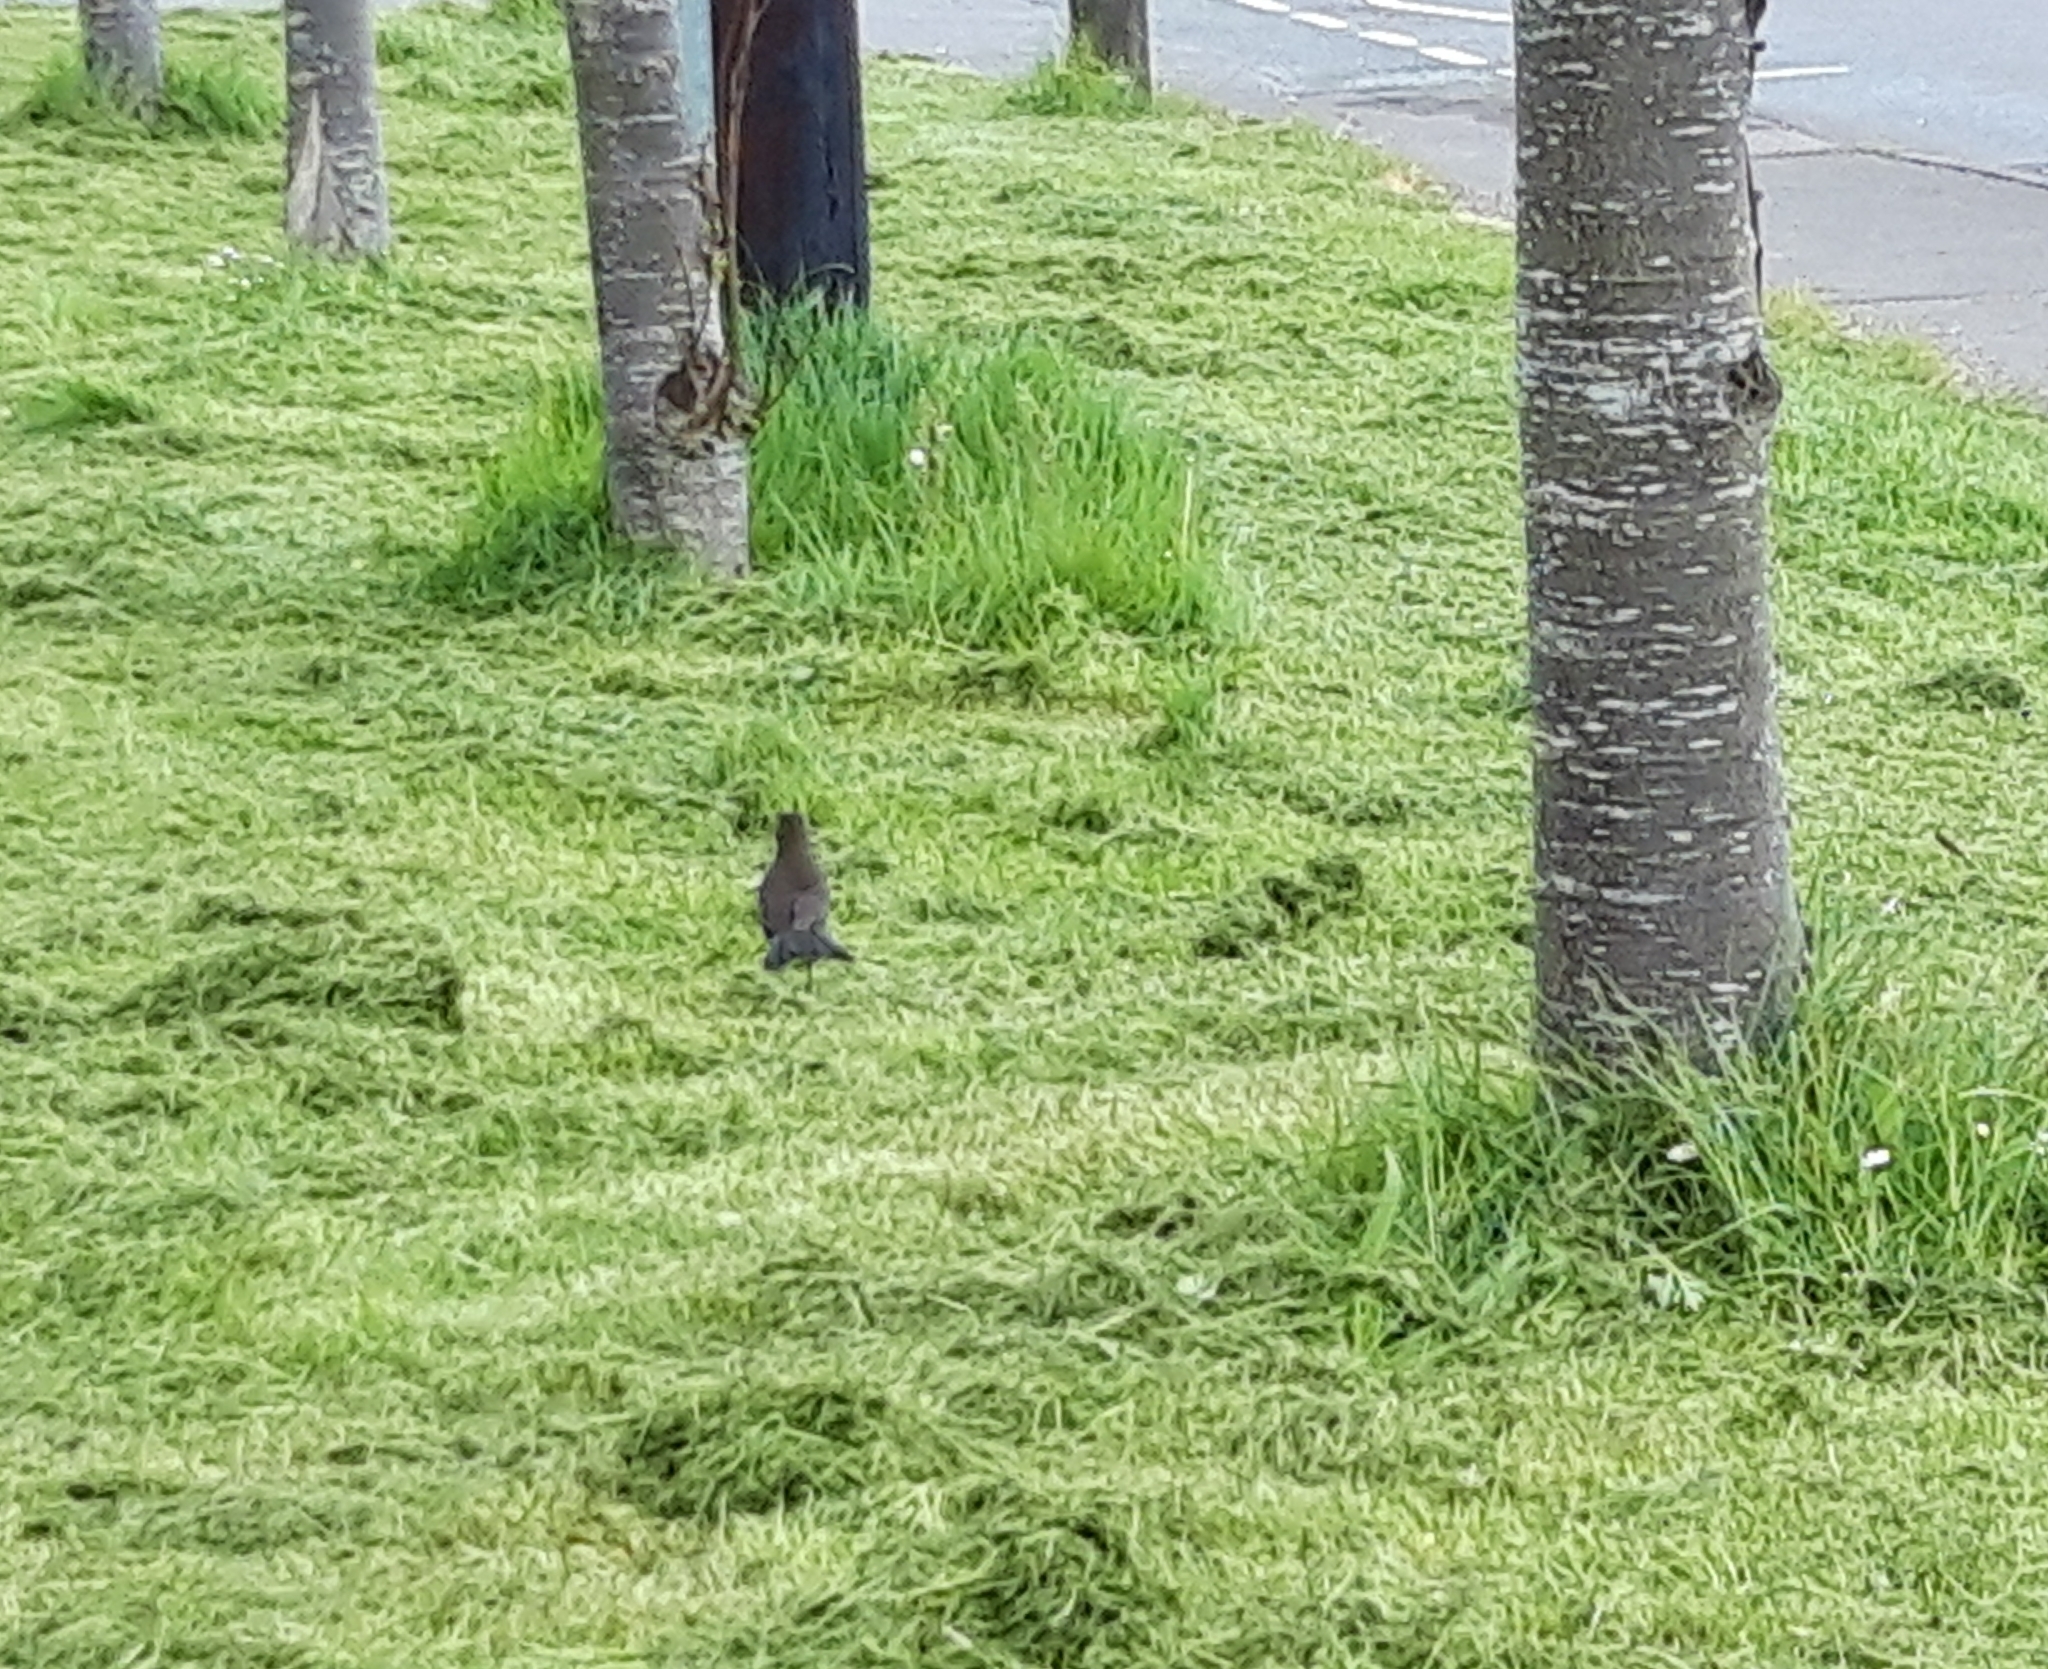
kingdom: Animalia
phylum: Chordata
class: Aves
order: Passeriformes
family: Turdidae
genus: Turdus
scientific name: Turdus merula
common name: Common blackbird
